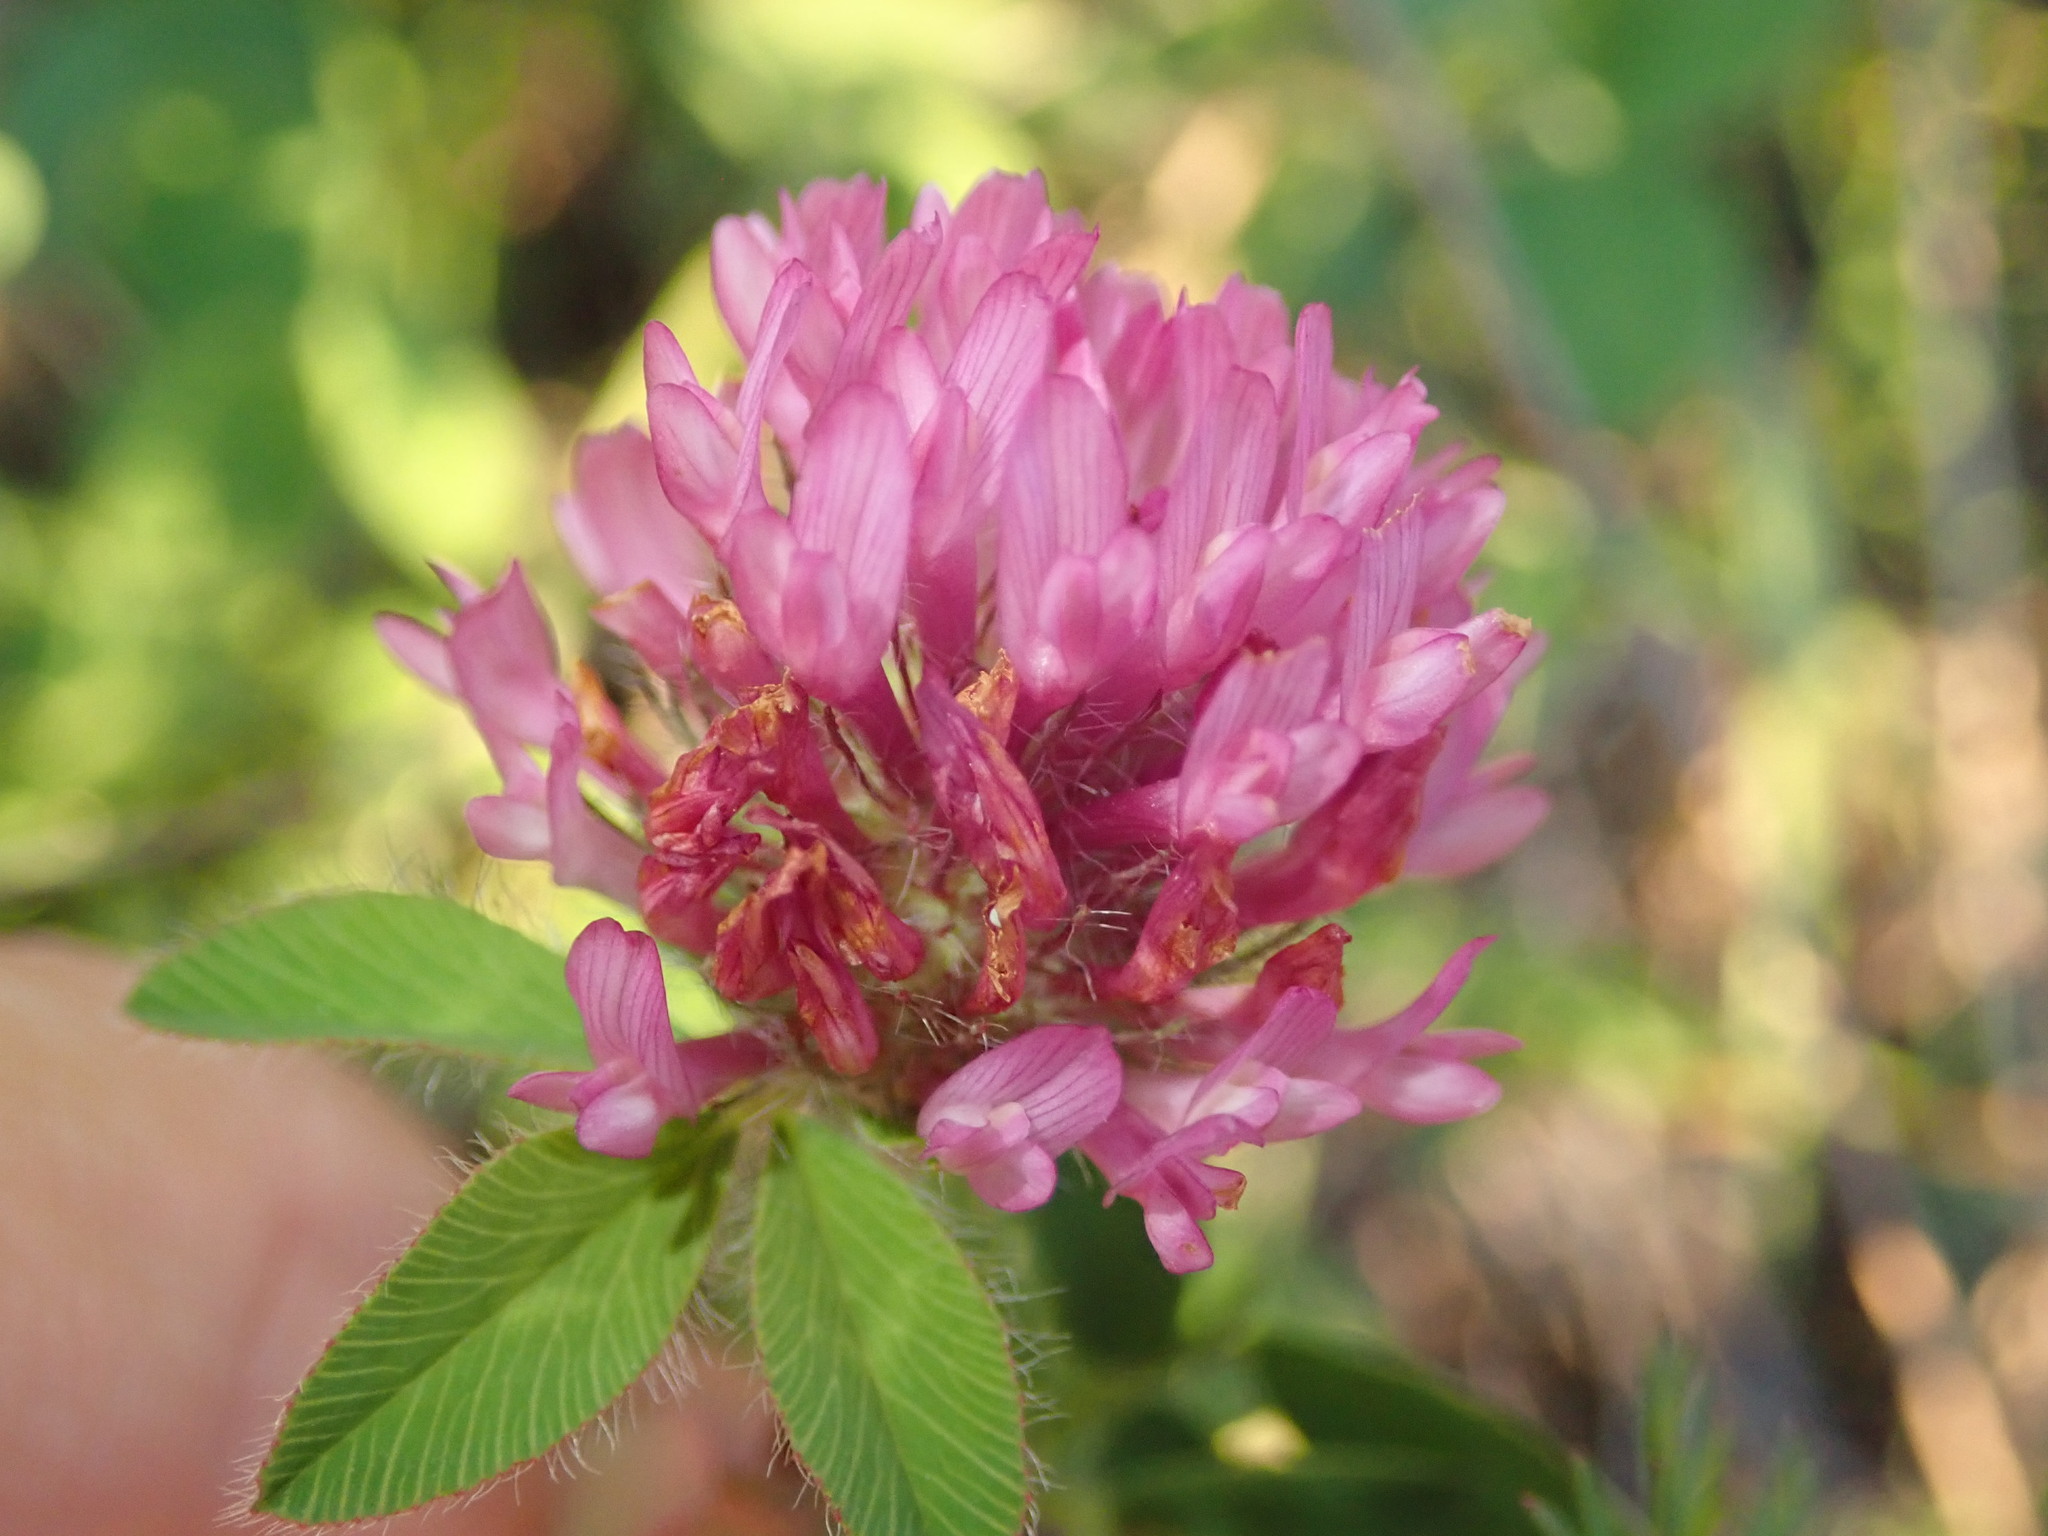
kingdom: Plantae
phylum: Tracheophyta
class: Magnoliopsida
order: Fabales
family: Fabaceae
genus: Trifolium
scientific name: Trifolium pratense
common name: Red clover
